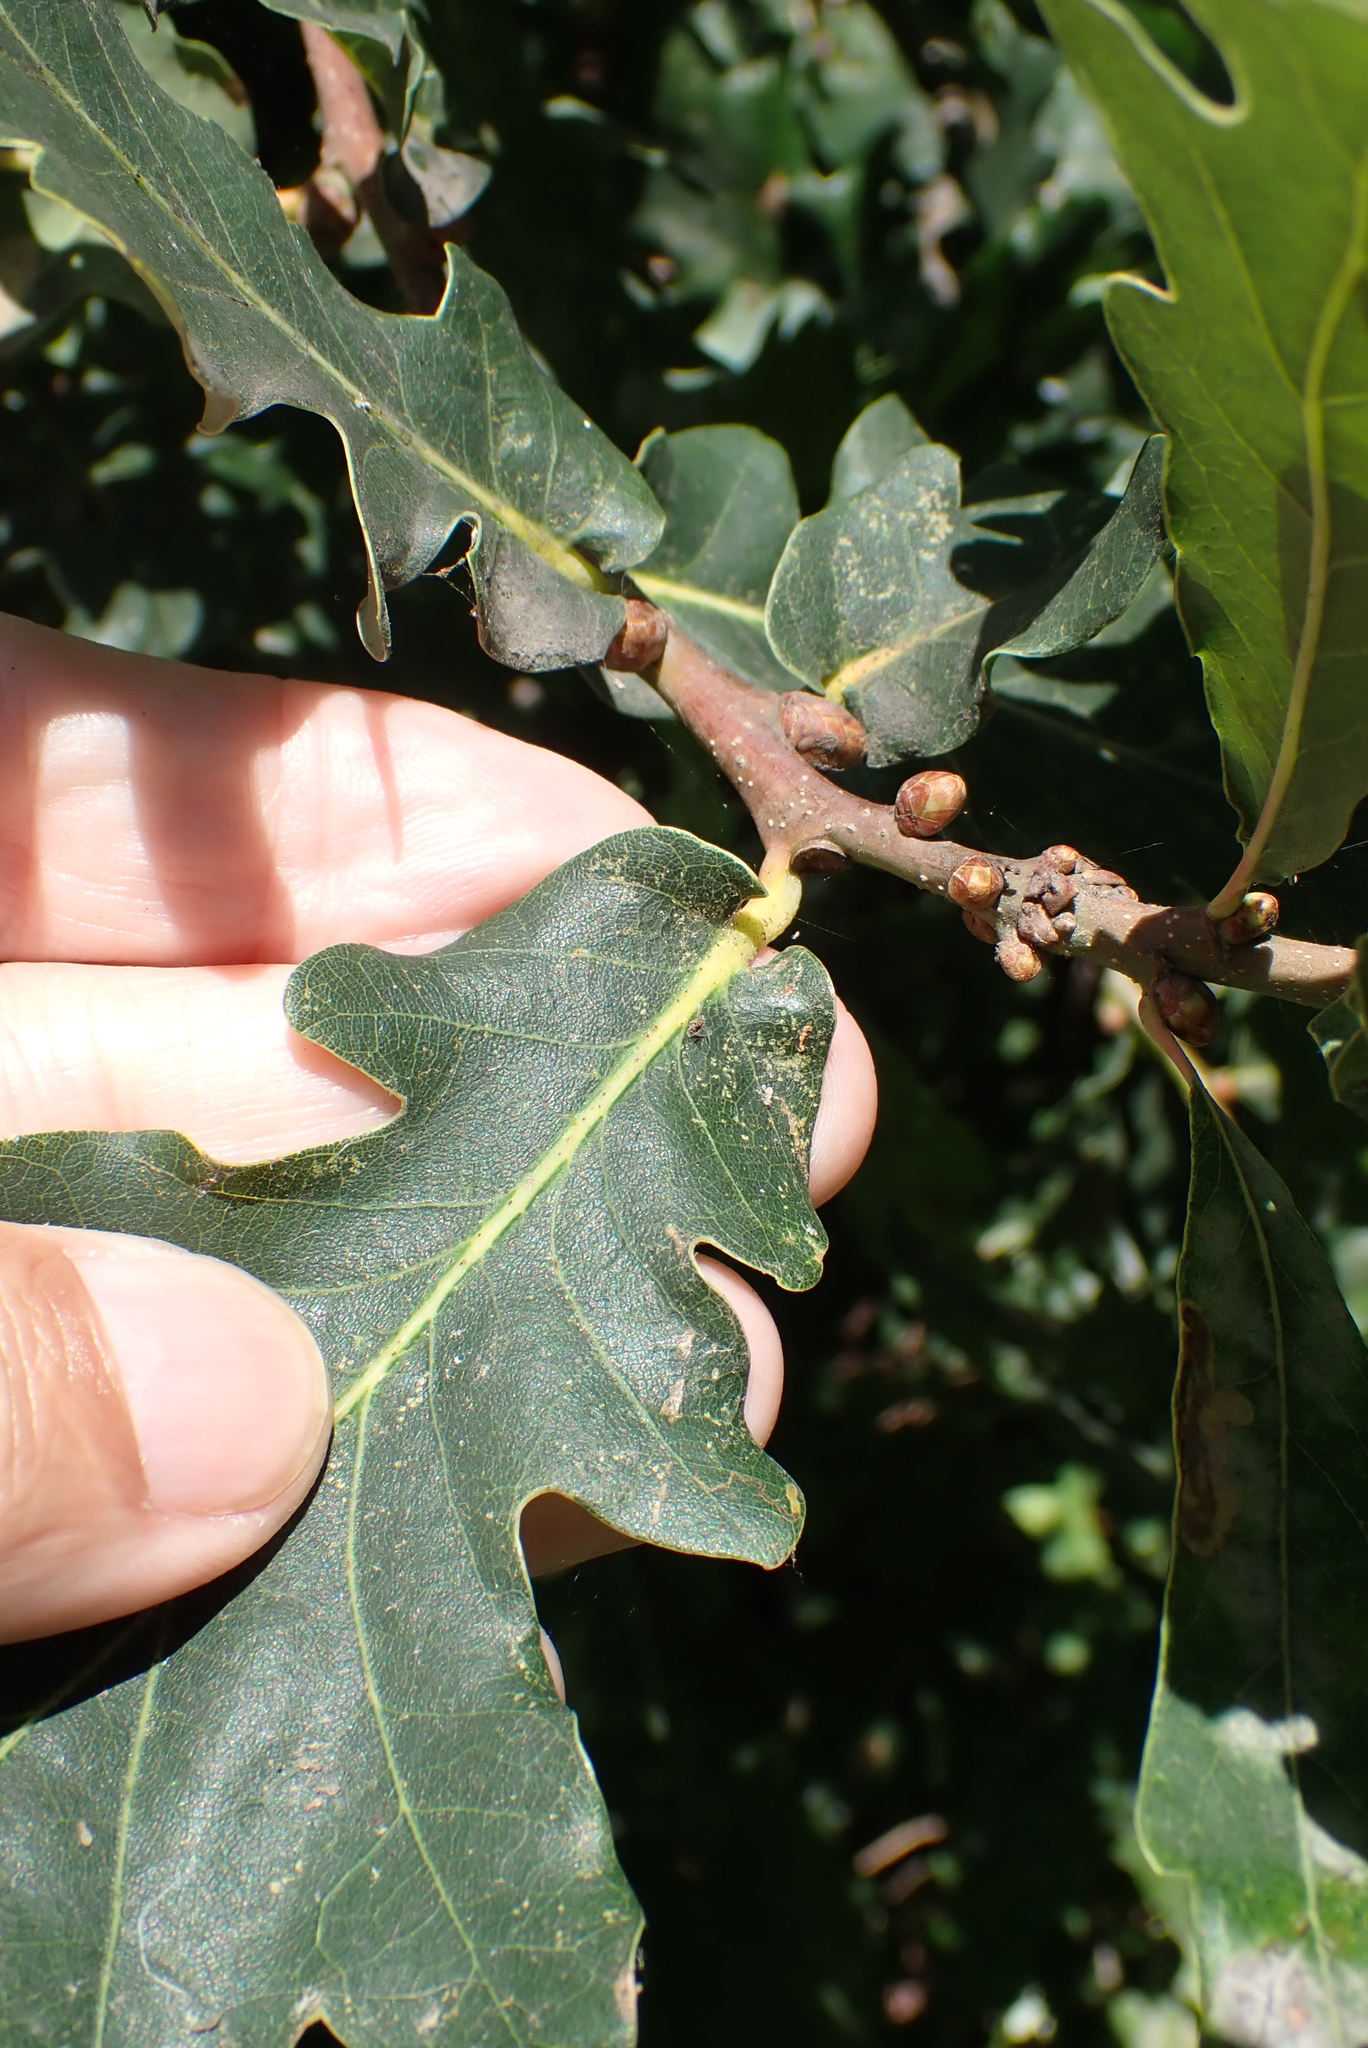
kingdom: Plantae
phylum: Tracheophyta
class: Magnoliopsida
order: Fagales
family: Fagaceae
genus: Quercus
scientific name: Quercus robur
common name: Pedunculate oak
